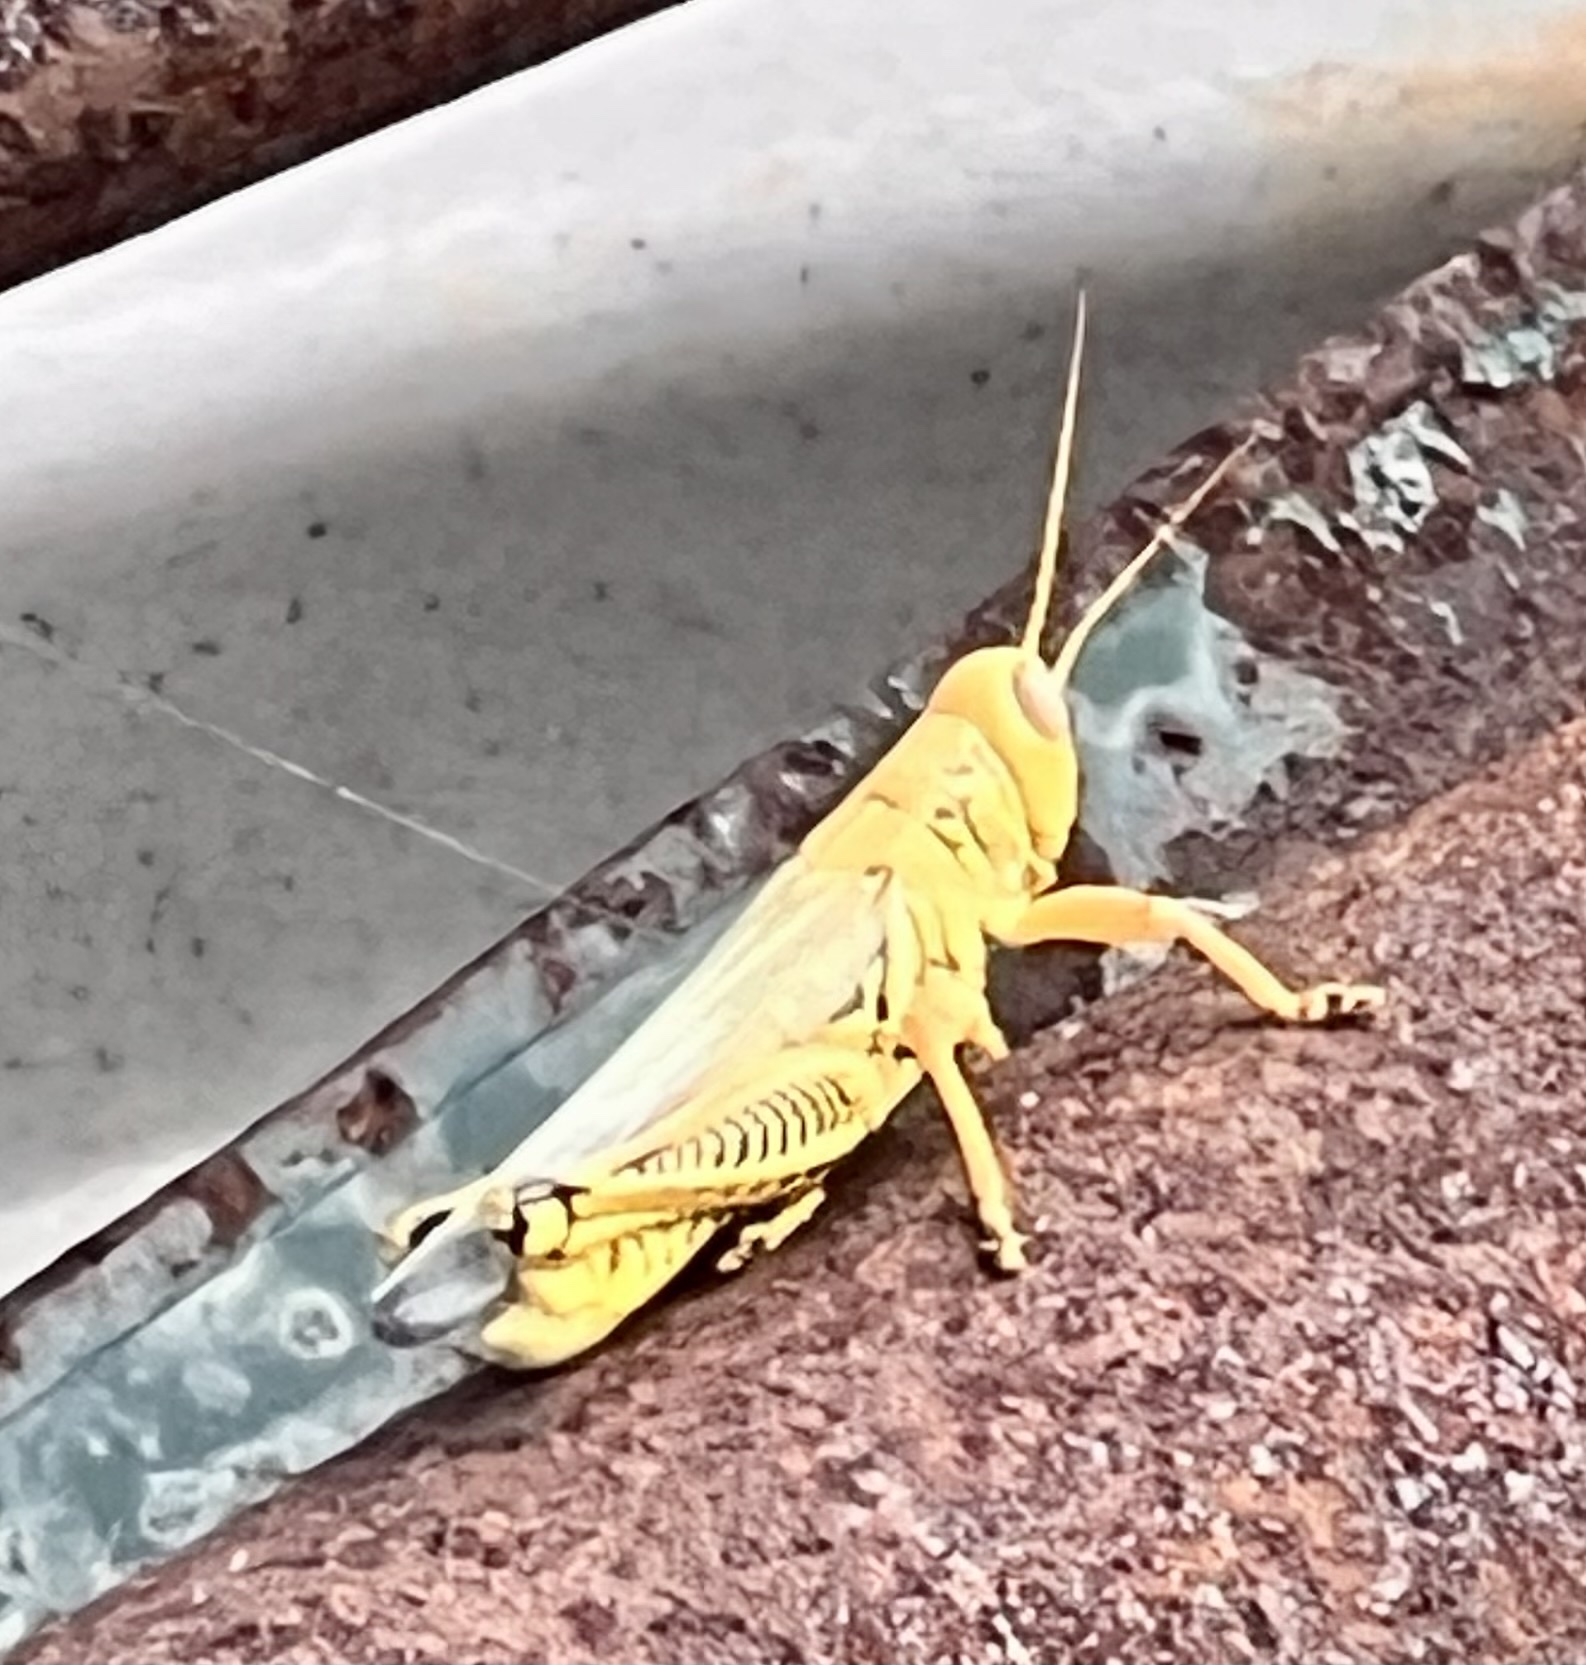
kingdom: Animalia
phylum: Arthropoda
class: Insecta
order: Orthoptera
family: Acrididae
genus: Melanoplus
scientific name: Melanoplus differentialis
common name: Differential grasshopper
